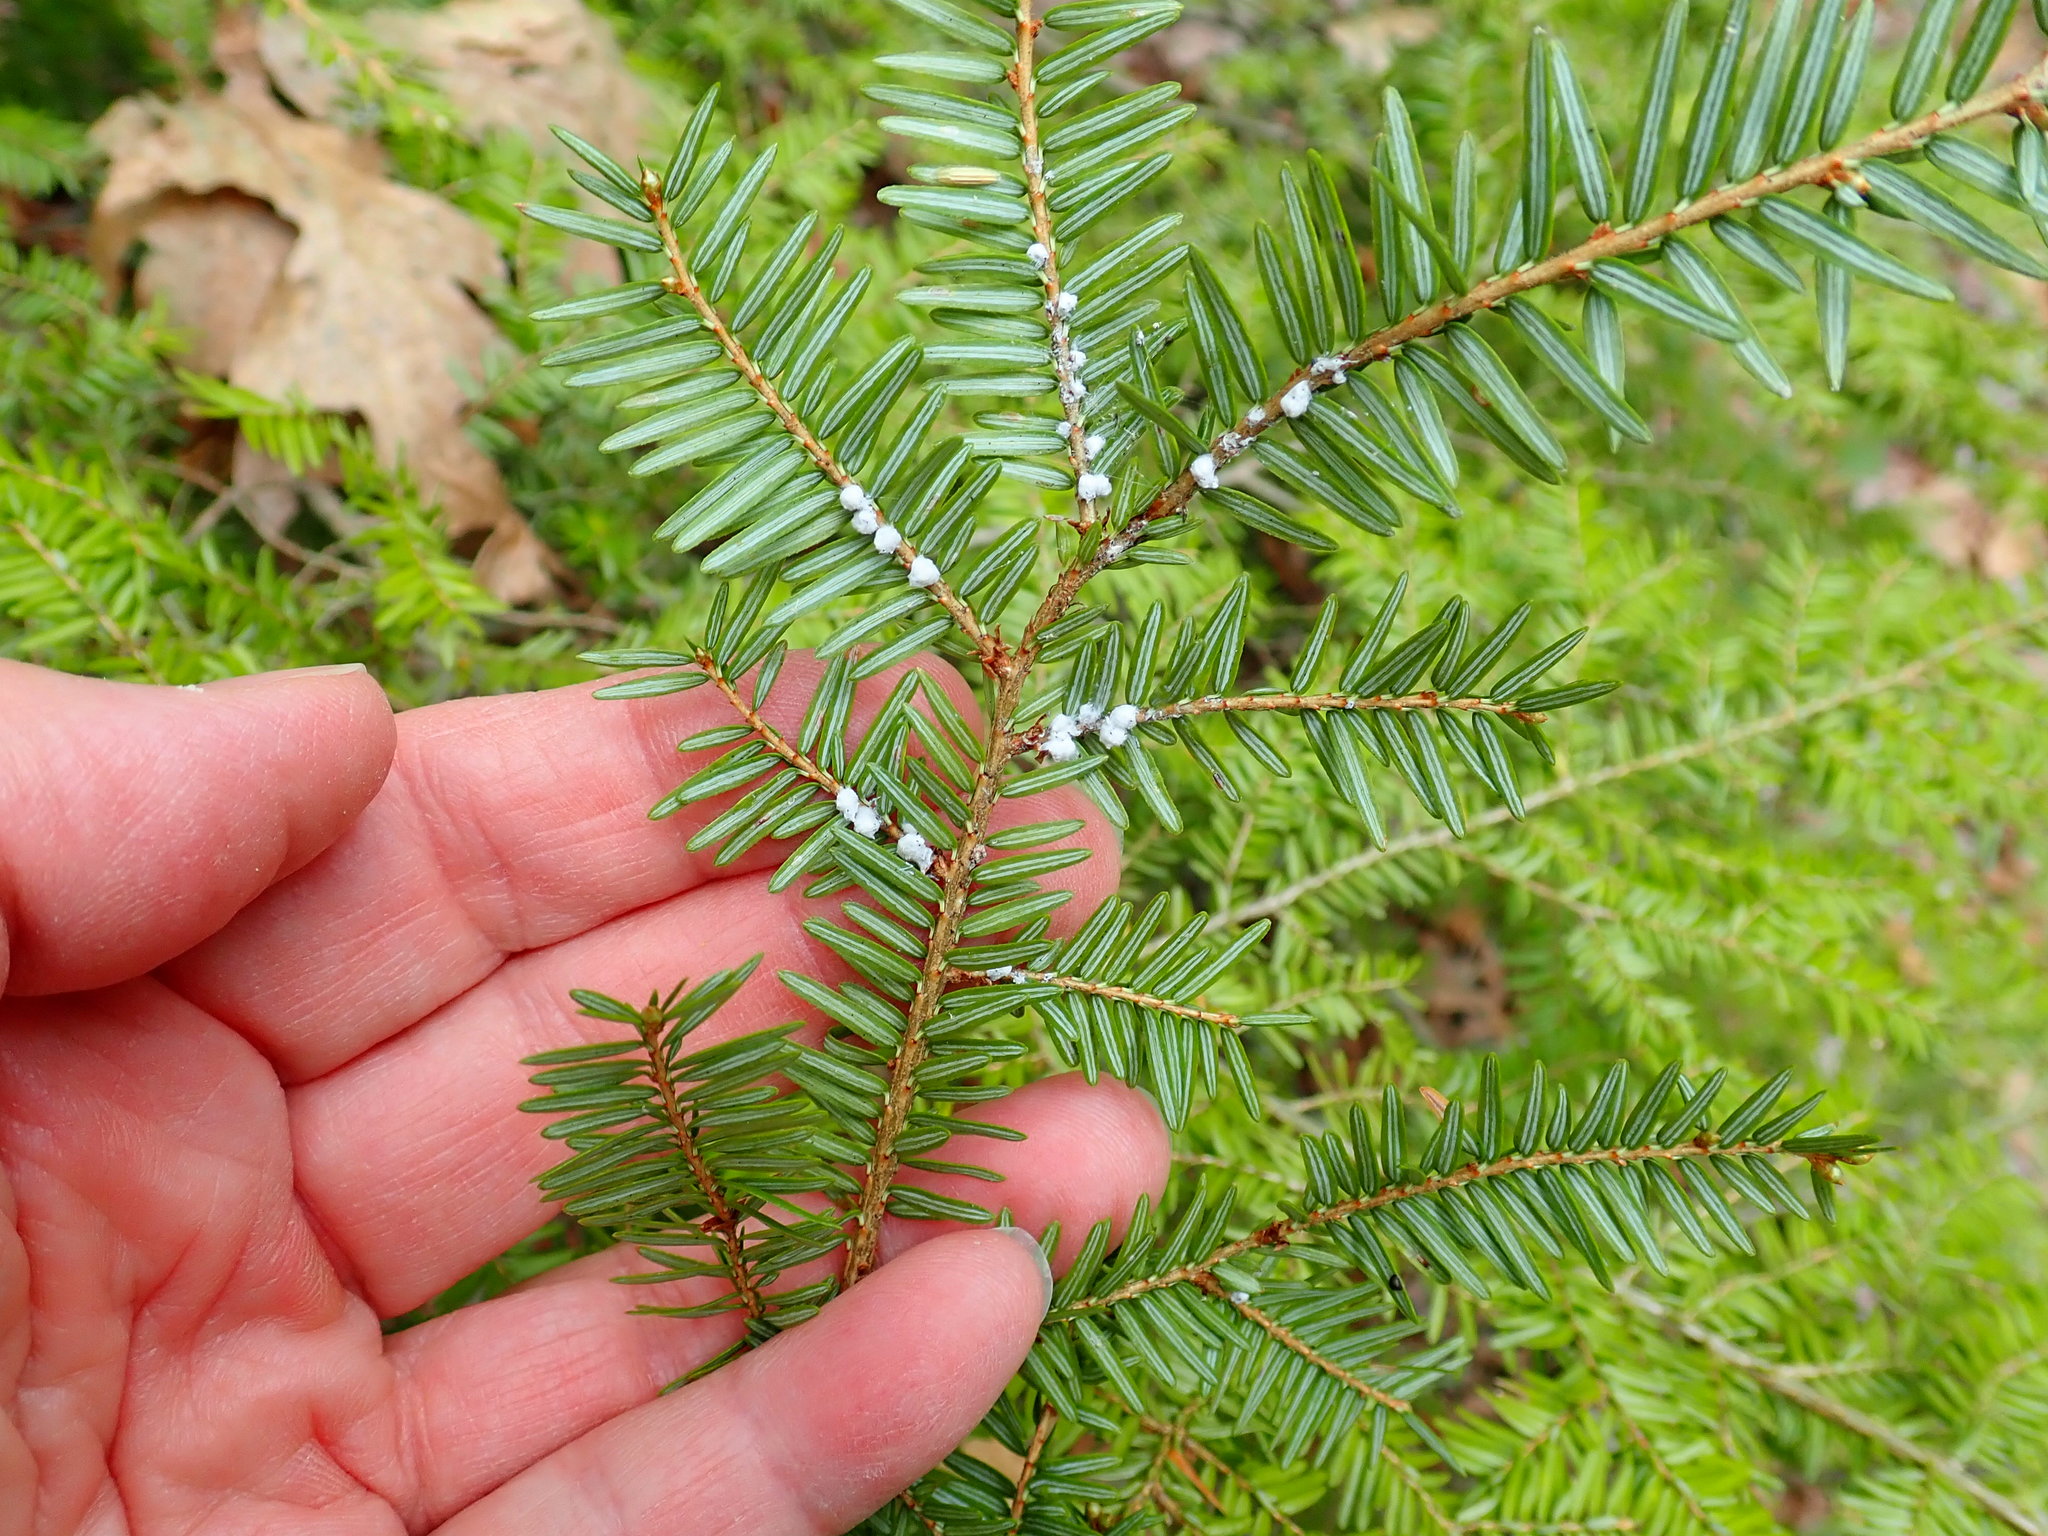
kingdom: Animalia
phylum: Arthropoda
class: Insecta
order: Hemiptera
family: Adelgidae
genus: Adelges
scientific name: Adelges tsugae
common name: Hemlock woolly adelgid
